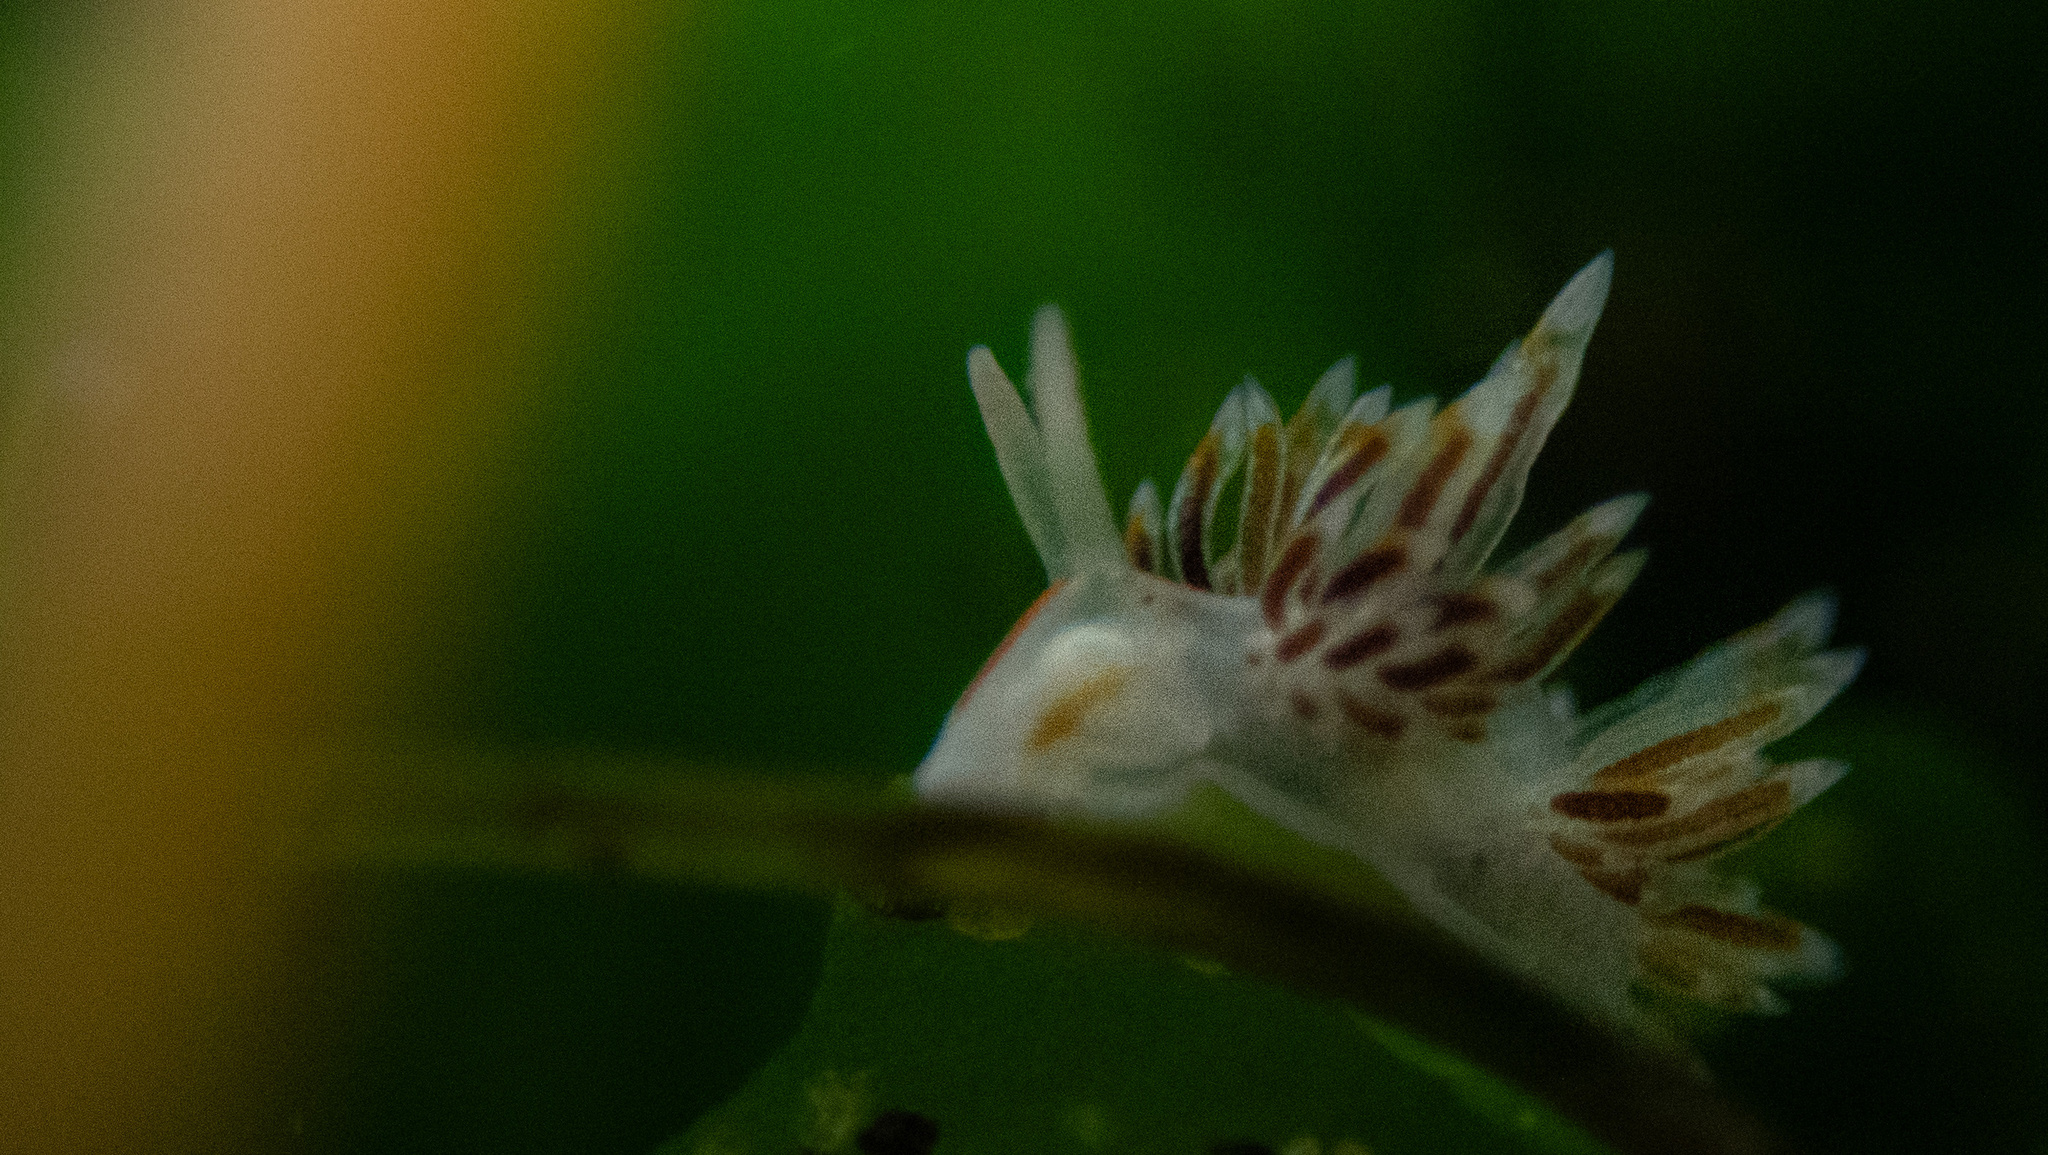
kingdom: Animalia
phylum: Mollusca
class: Gastropoda
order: Nudibranchia
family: Myrrhinidae
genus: Hermissenda
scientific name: Hermissenda opalescens
